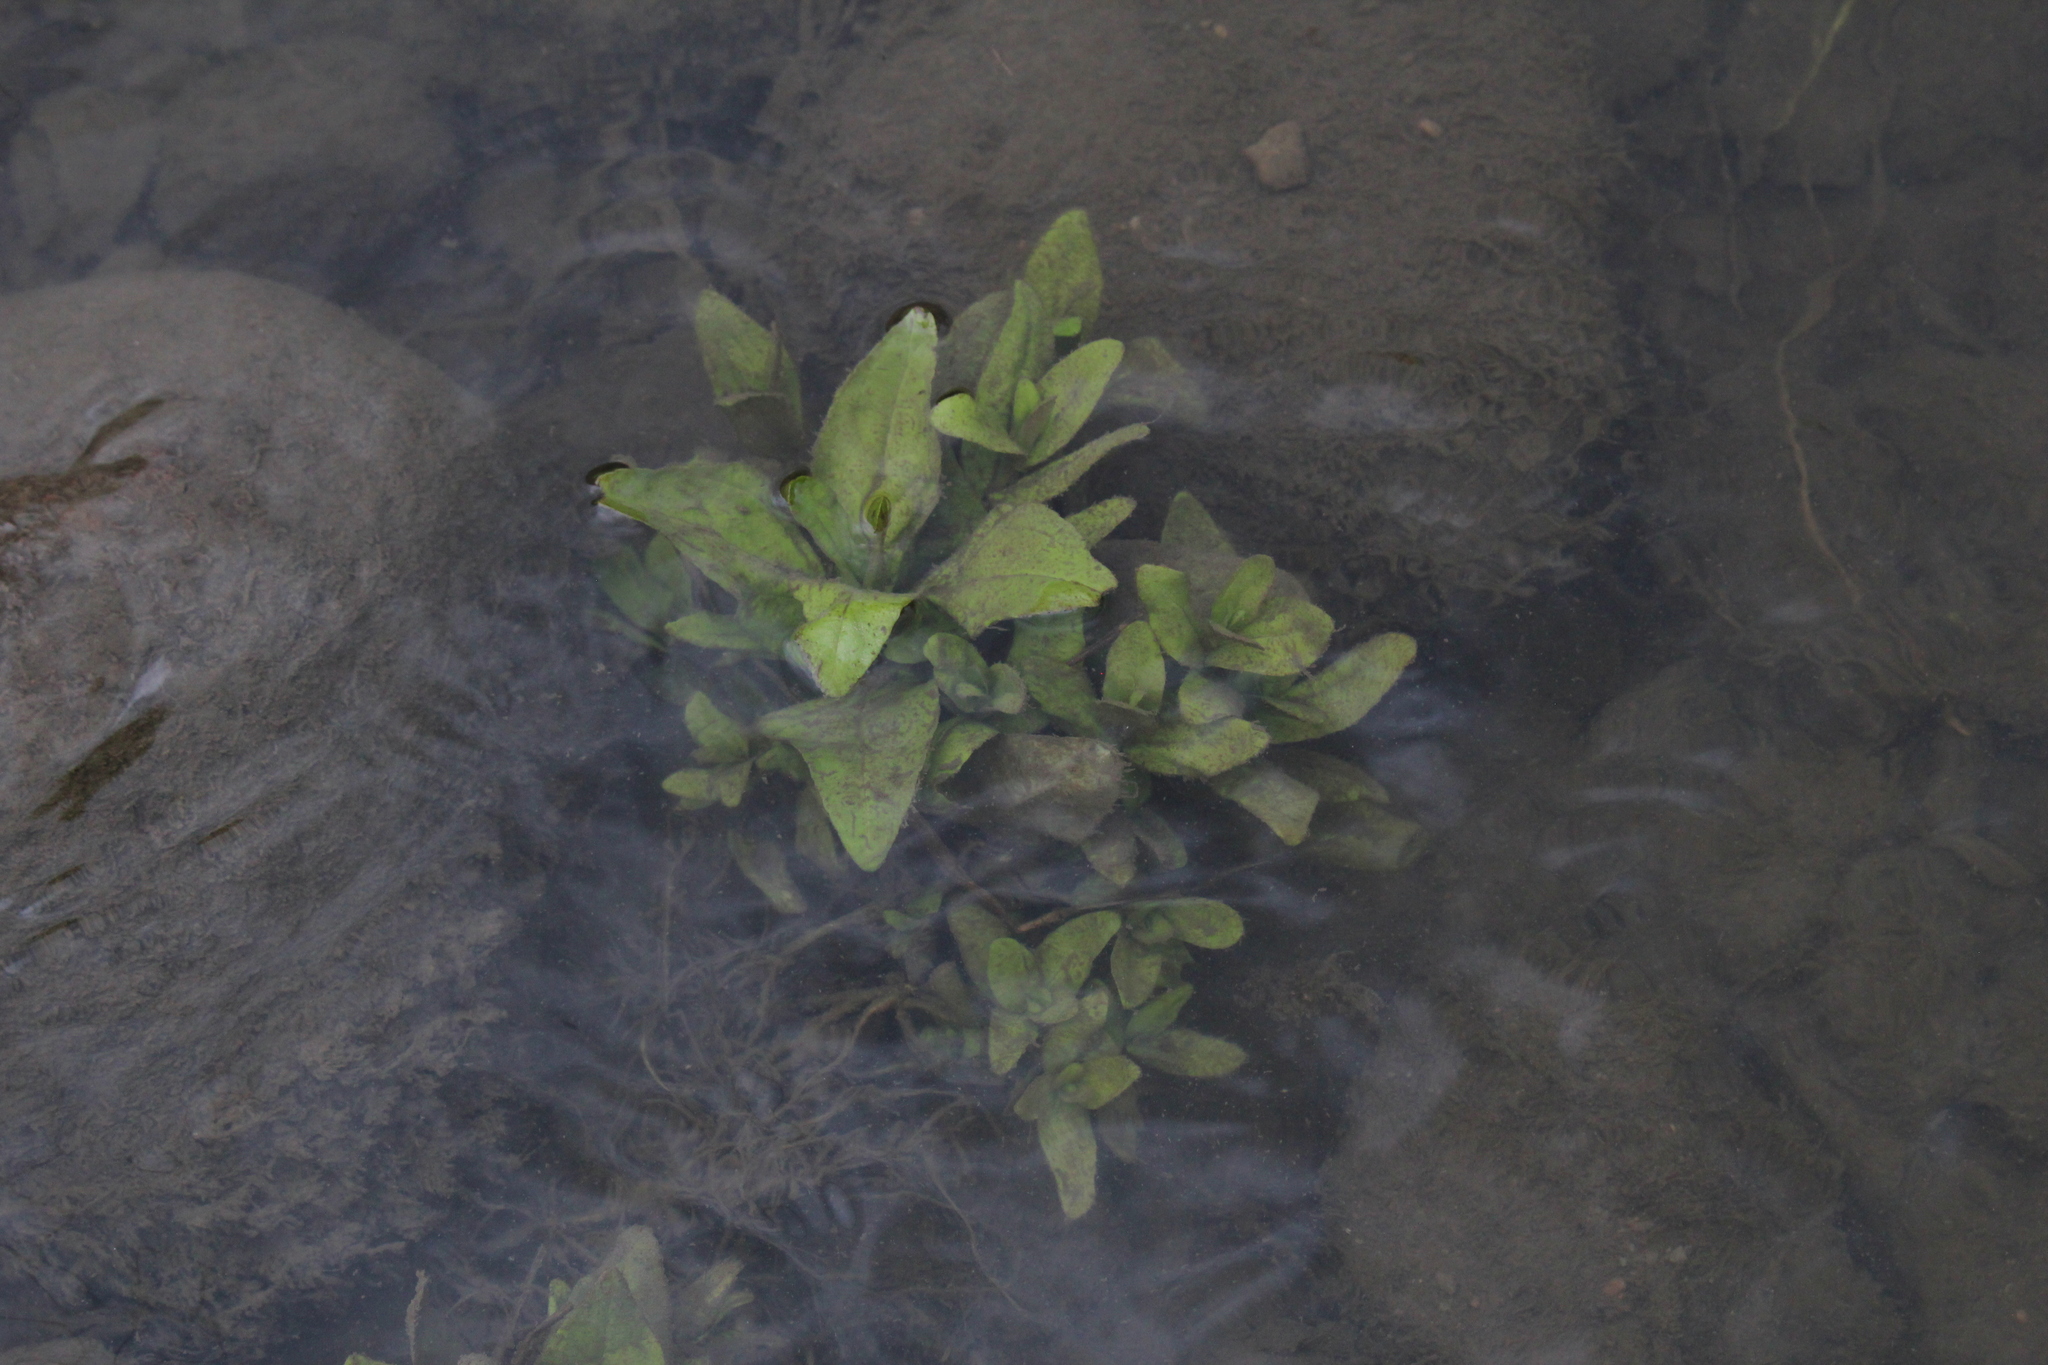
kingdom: Plantae
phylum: Tracheophyta
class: Magnoliopsida
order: Lamiales
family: Plantaginaceae
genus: Veronica
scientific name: Veronica anagallis-aquatica
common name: Water speedwell
